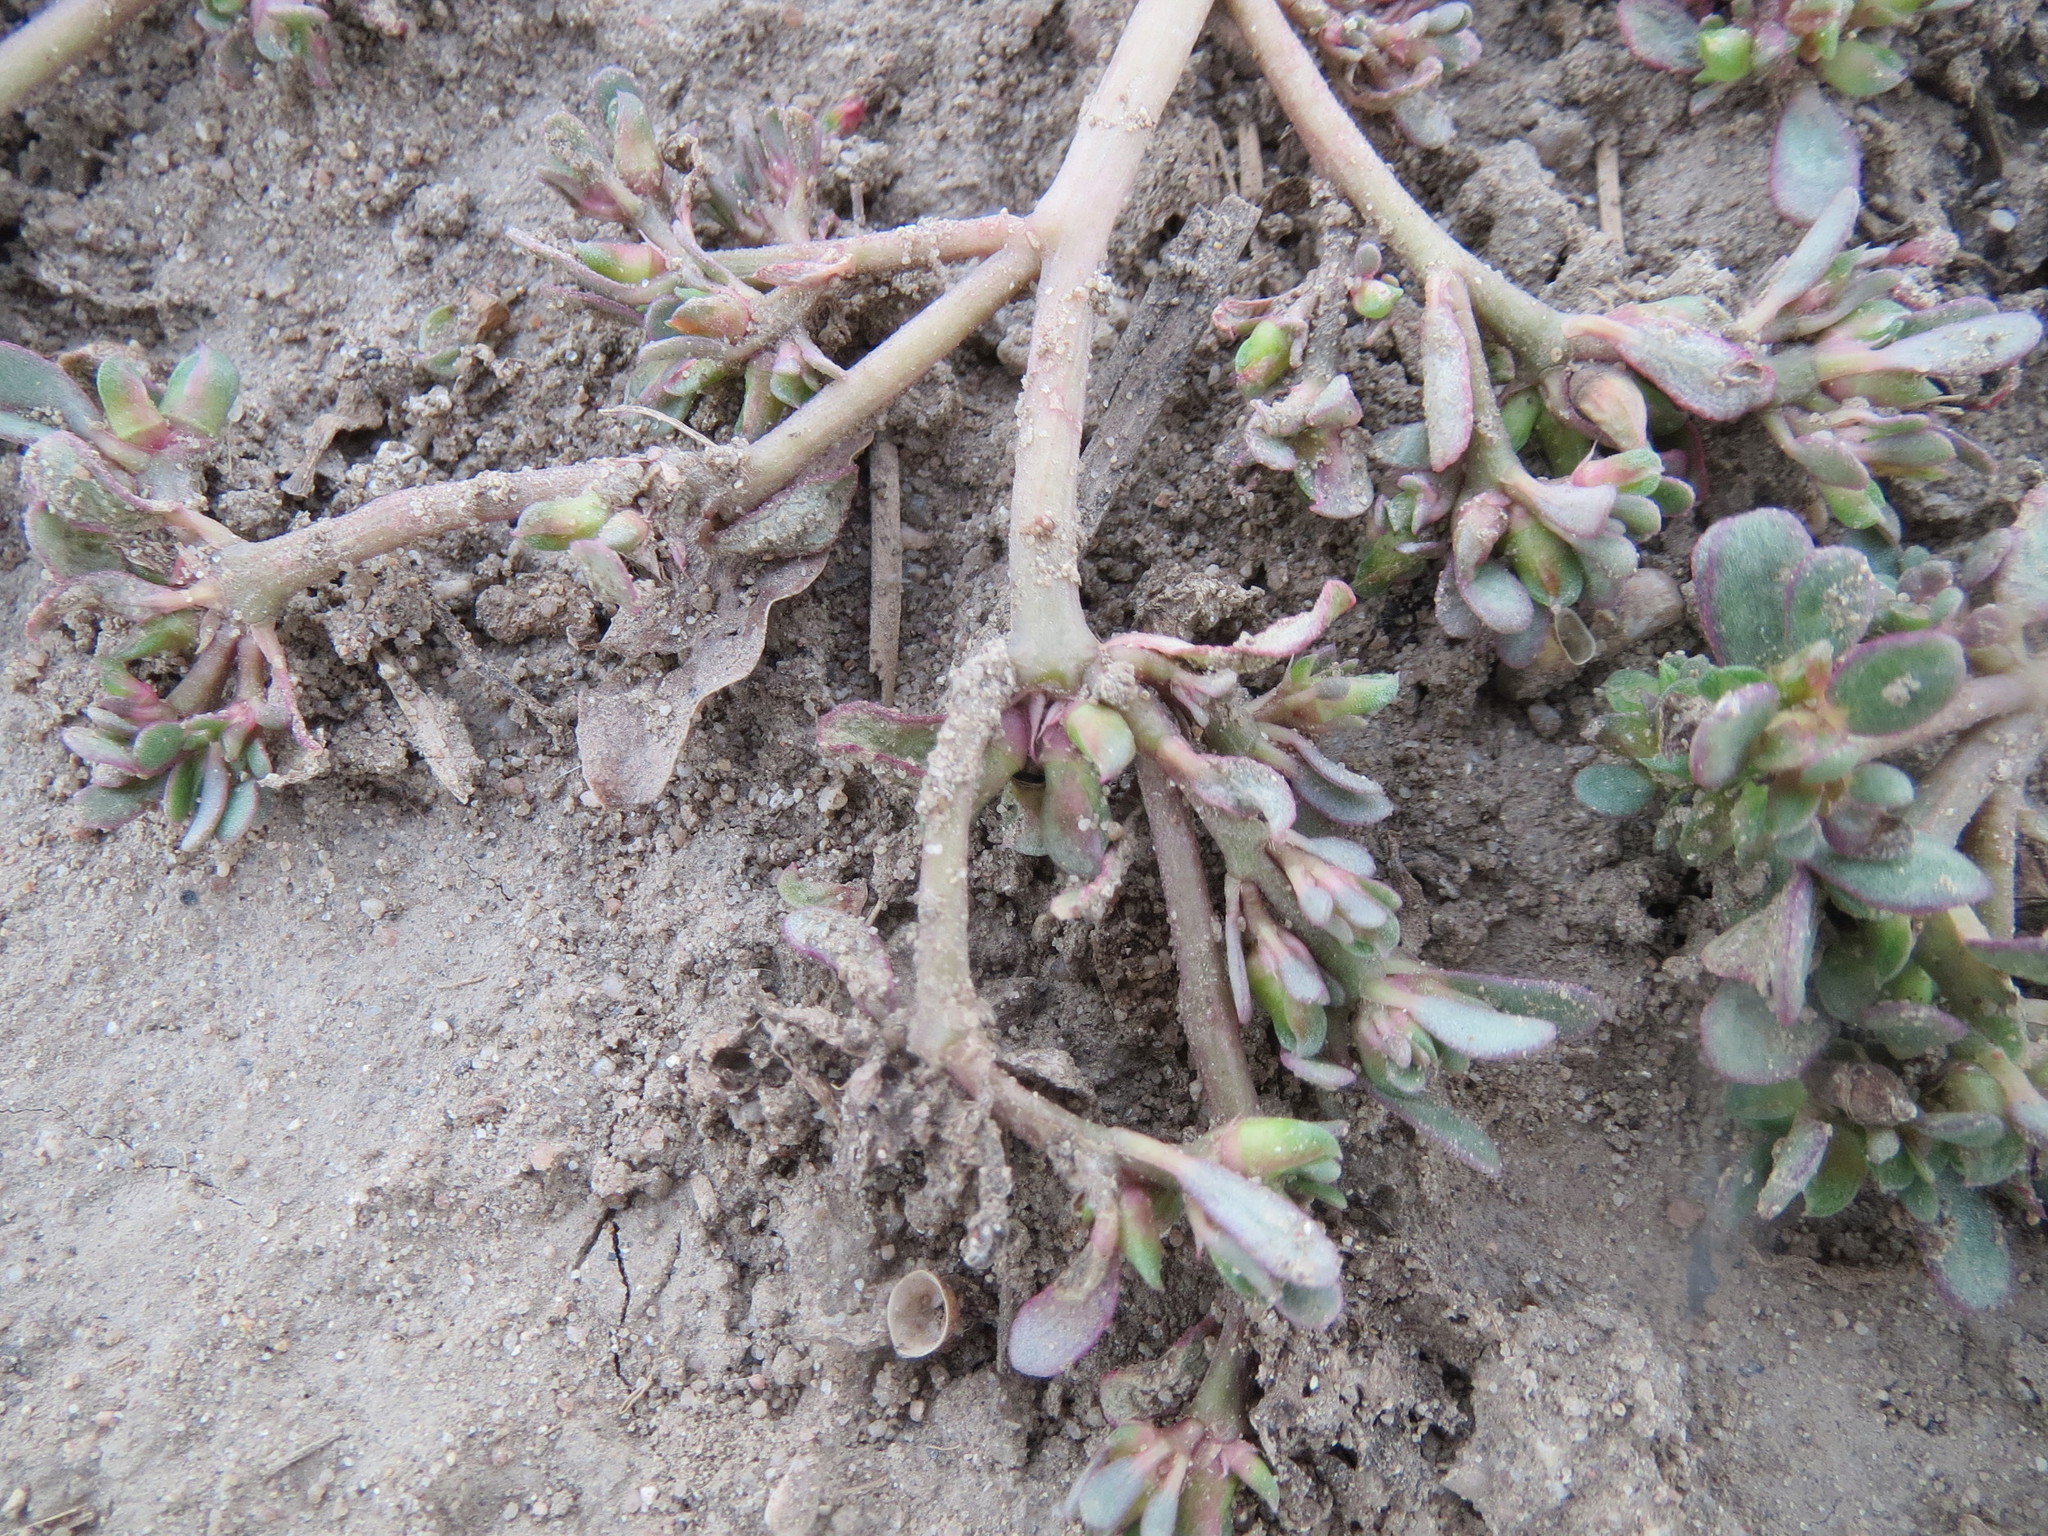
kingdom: Plantae
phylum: Tracheophyta
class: Magnoliopsida
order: Caryophyllales
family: Portulacaceae
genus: Portulaca
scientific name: Portulaca oleracea
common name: Common purslane
